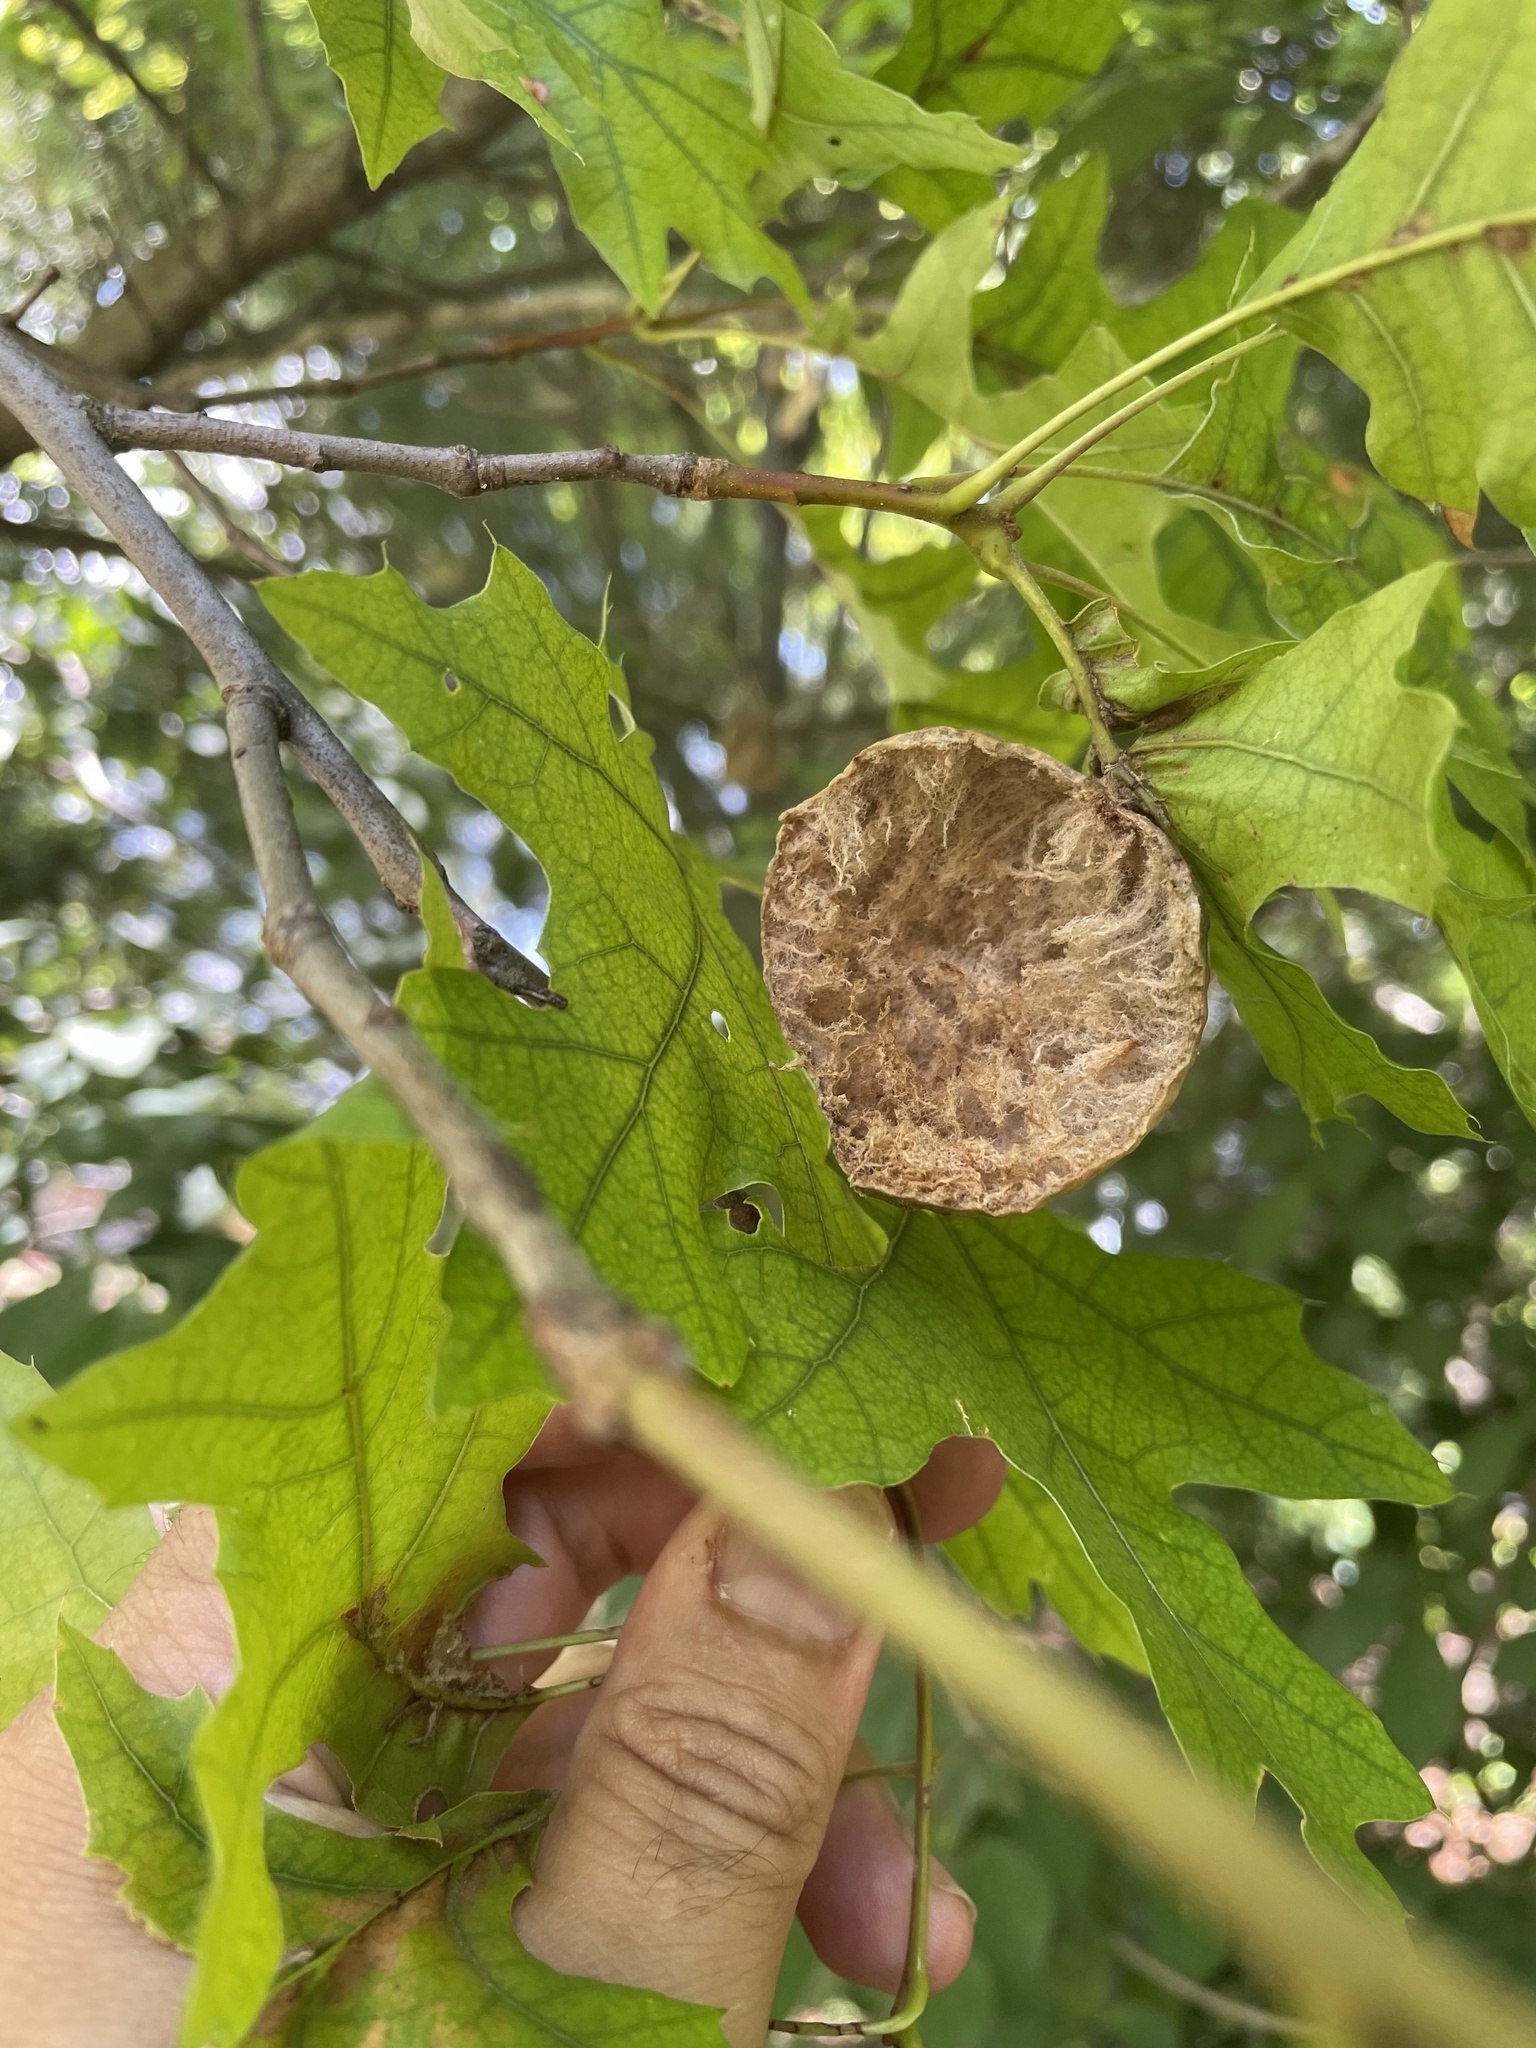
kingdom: Animalia
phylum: Arthropoda
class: Insecta
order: Hymenoptera
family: Cynipidae
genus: Amphibolips
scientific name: Amphibolips
